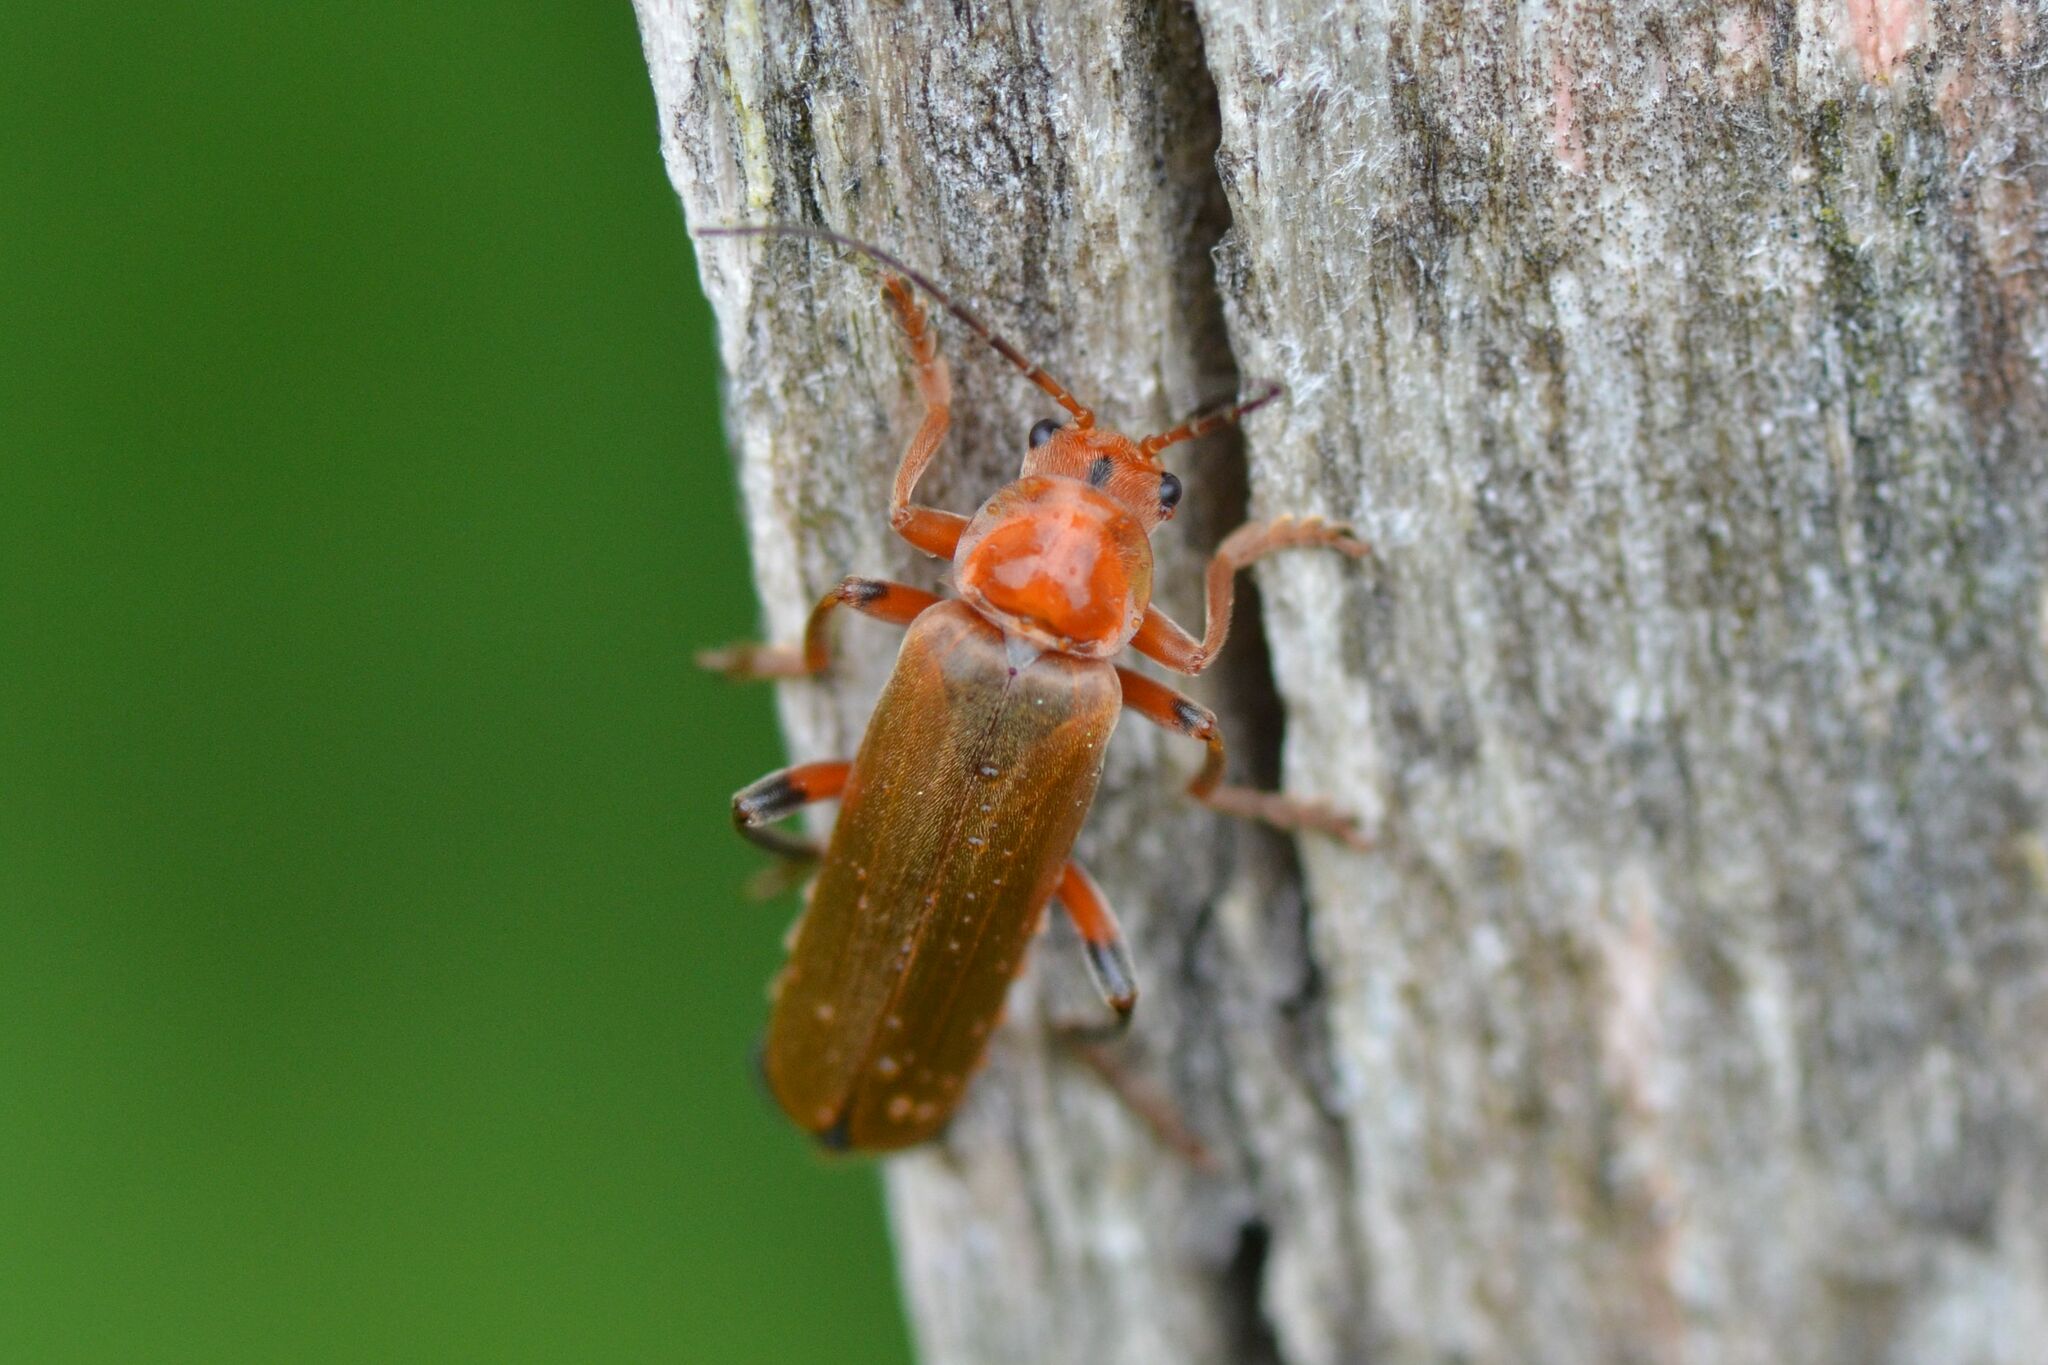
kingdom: Animalia
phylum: Arthropoda
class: Insecta
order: Coleoptera
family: Cantharidae
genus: Cantharis
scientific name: Cantharis livida
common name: Livid soldier beetle
